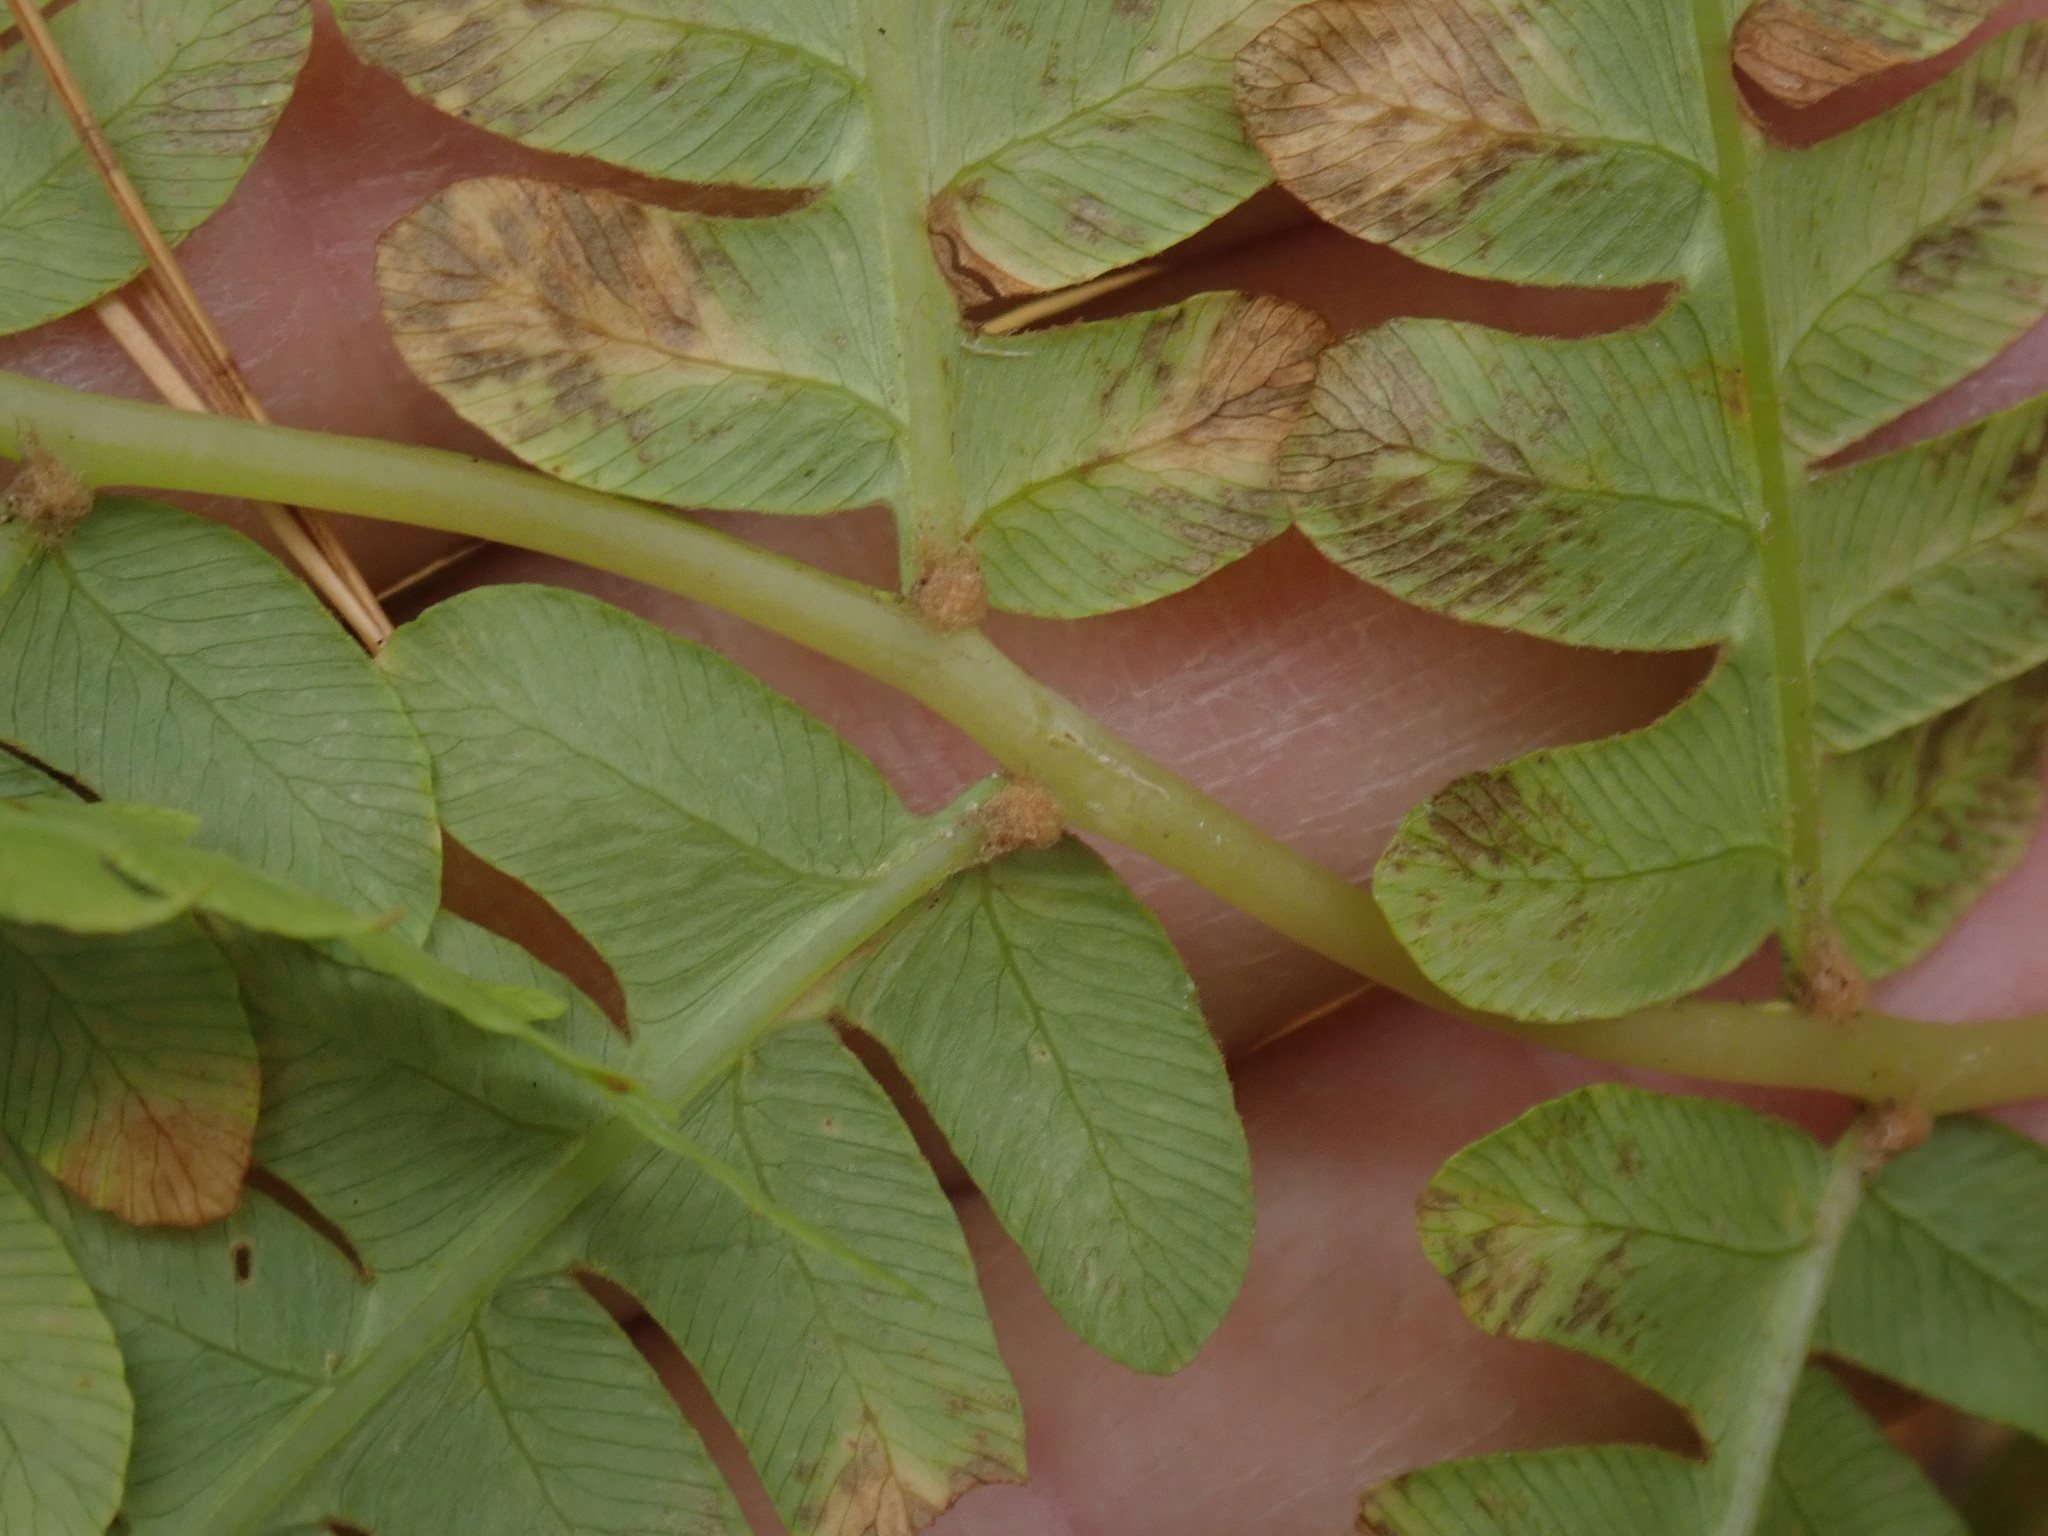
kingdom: Plantae
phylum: Tracheophyta
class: Polypodiopsida
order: Osmundales
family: Osmundaceae
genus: Osmundastrum
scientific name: Osmundastrum cinnamomeum
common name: Cinnamon fern
